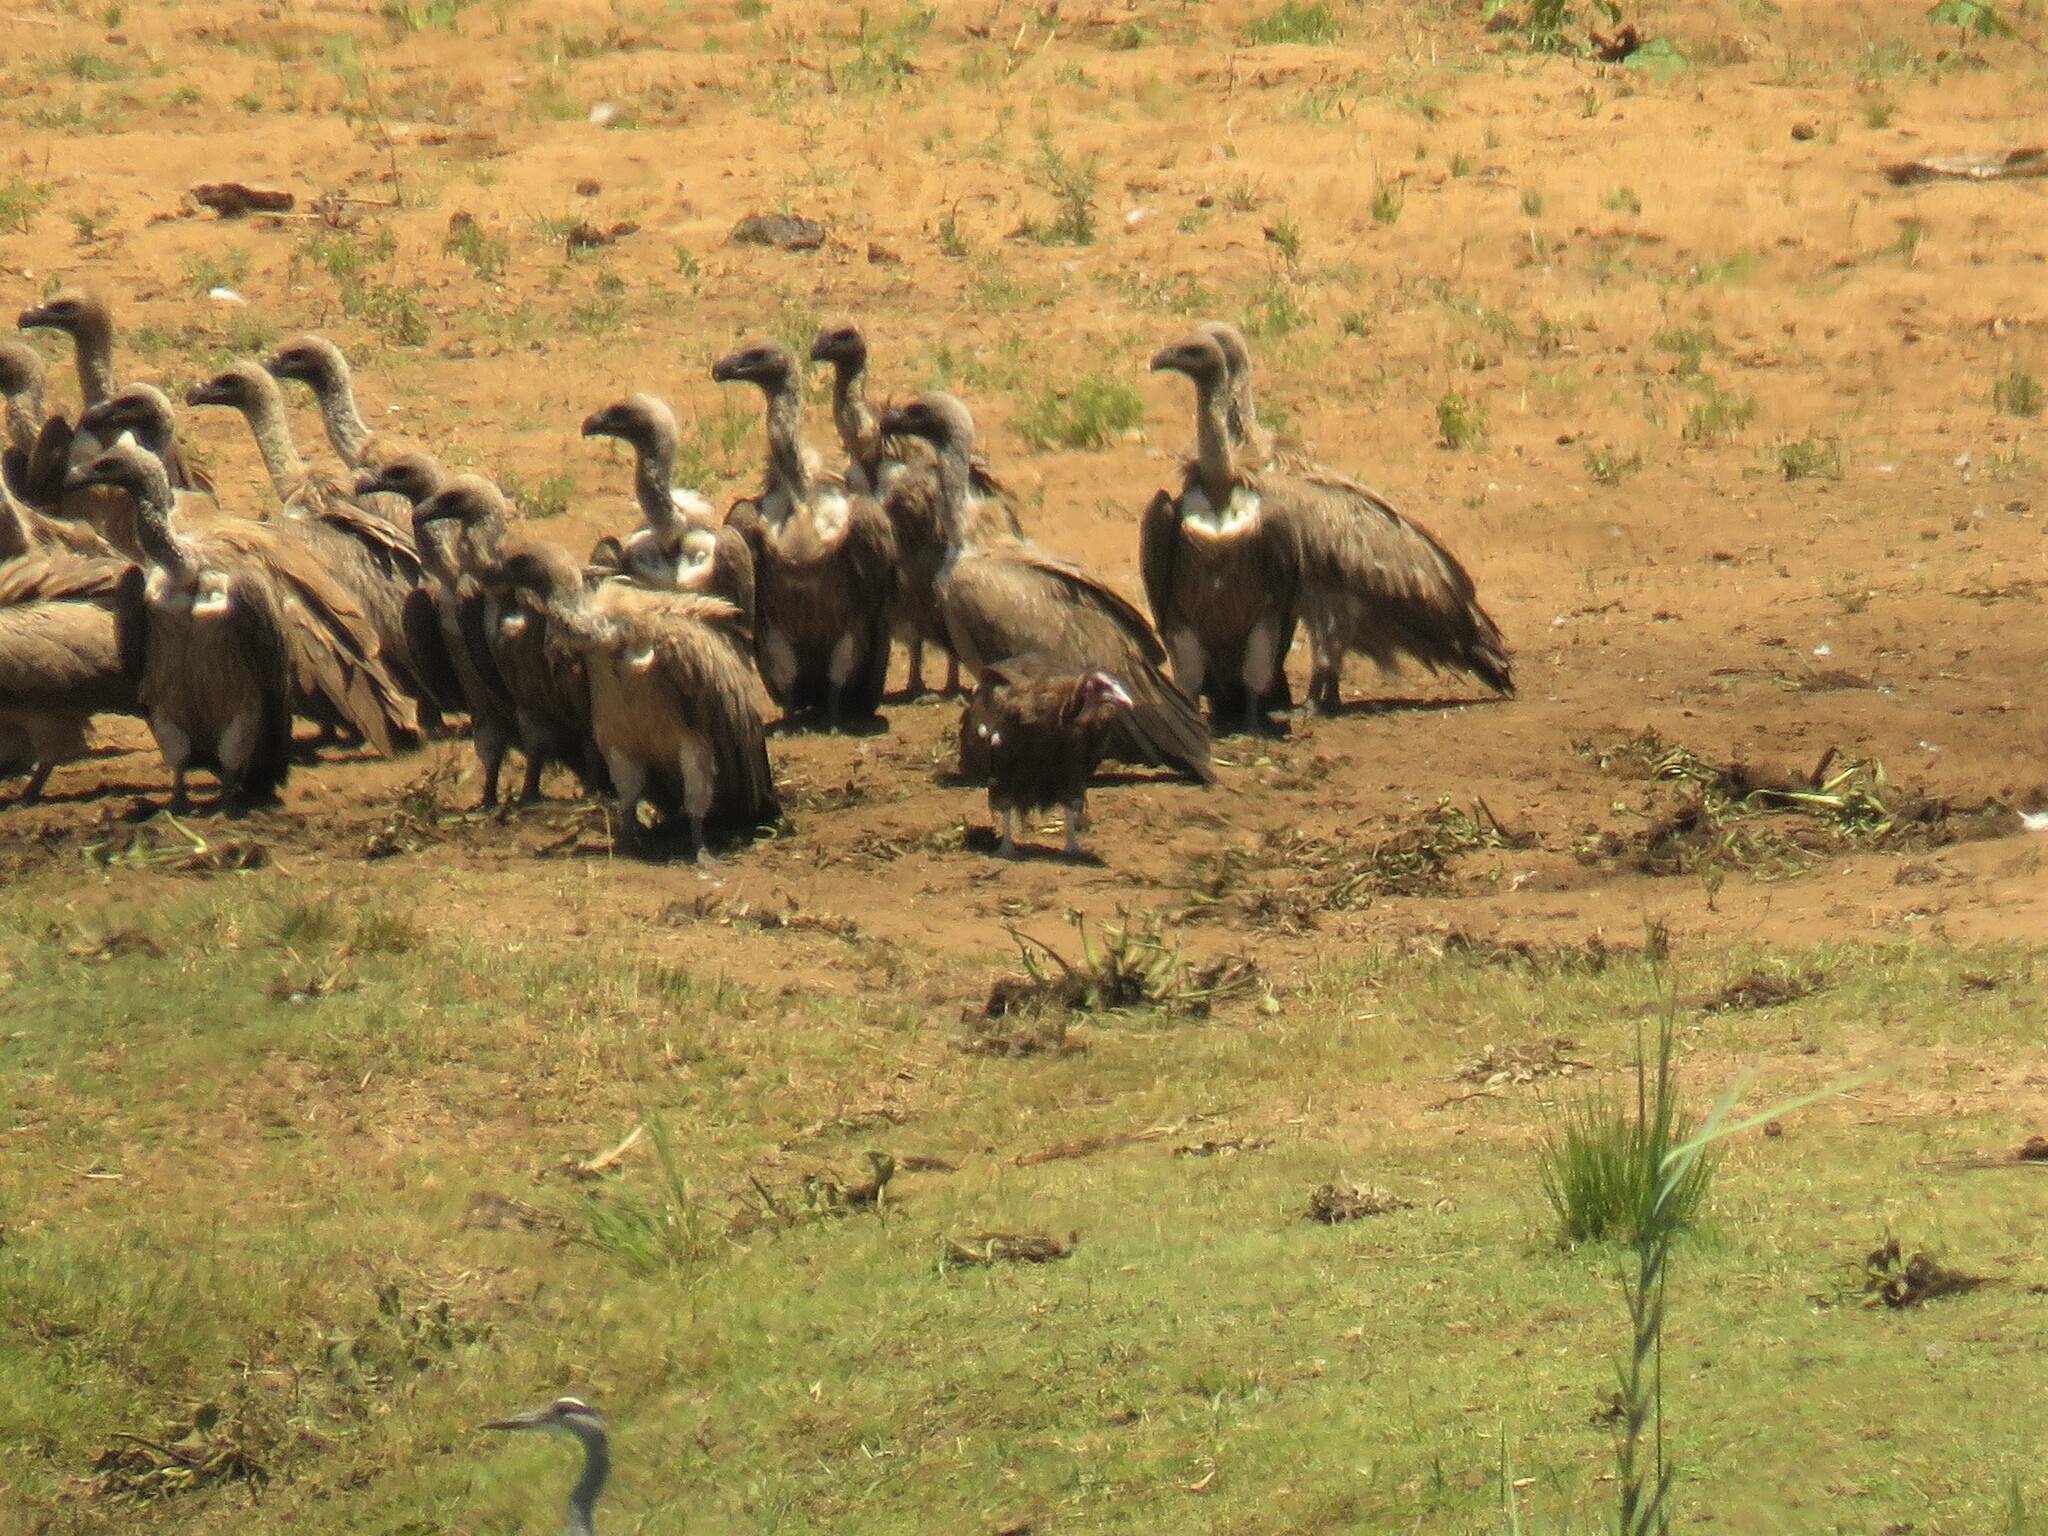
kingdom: Animalia
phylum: Chordata
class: Aves
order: Accipitriformes
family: Accipitridae
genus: Necrosyrtes
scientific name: Necrosyrtes monachus
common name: Hooded vulture
